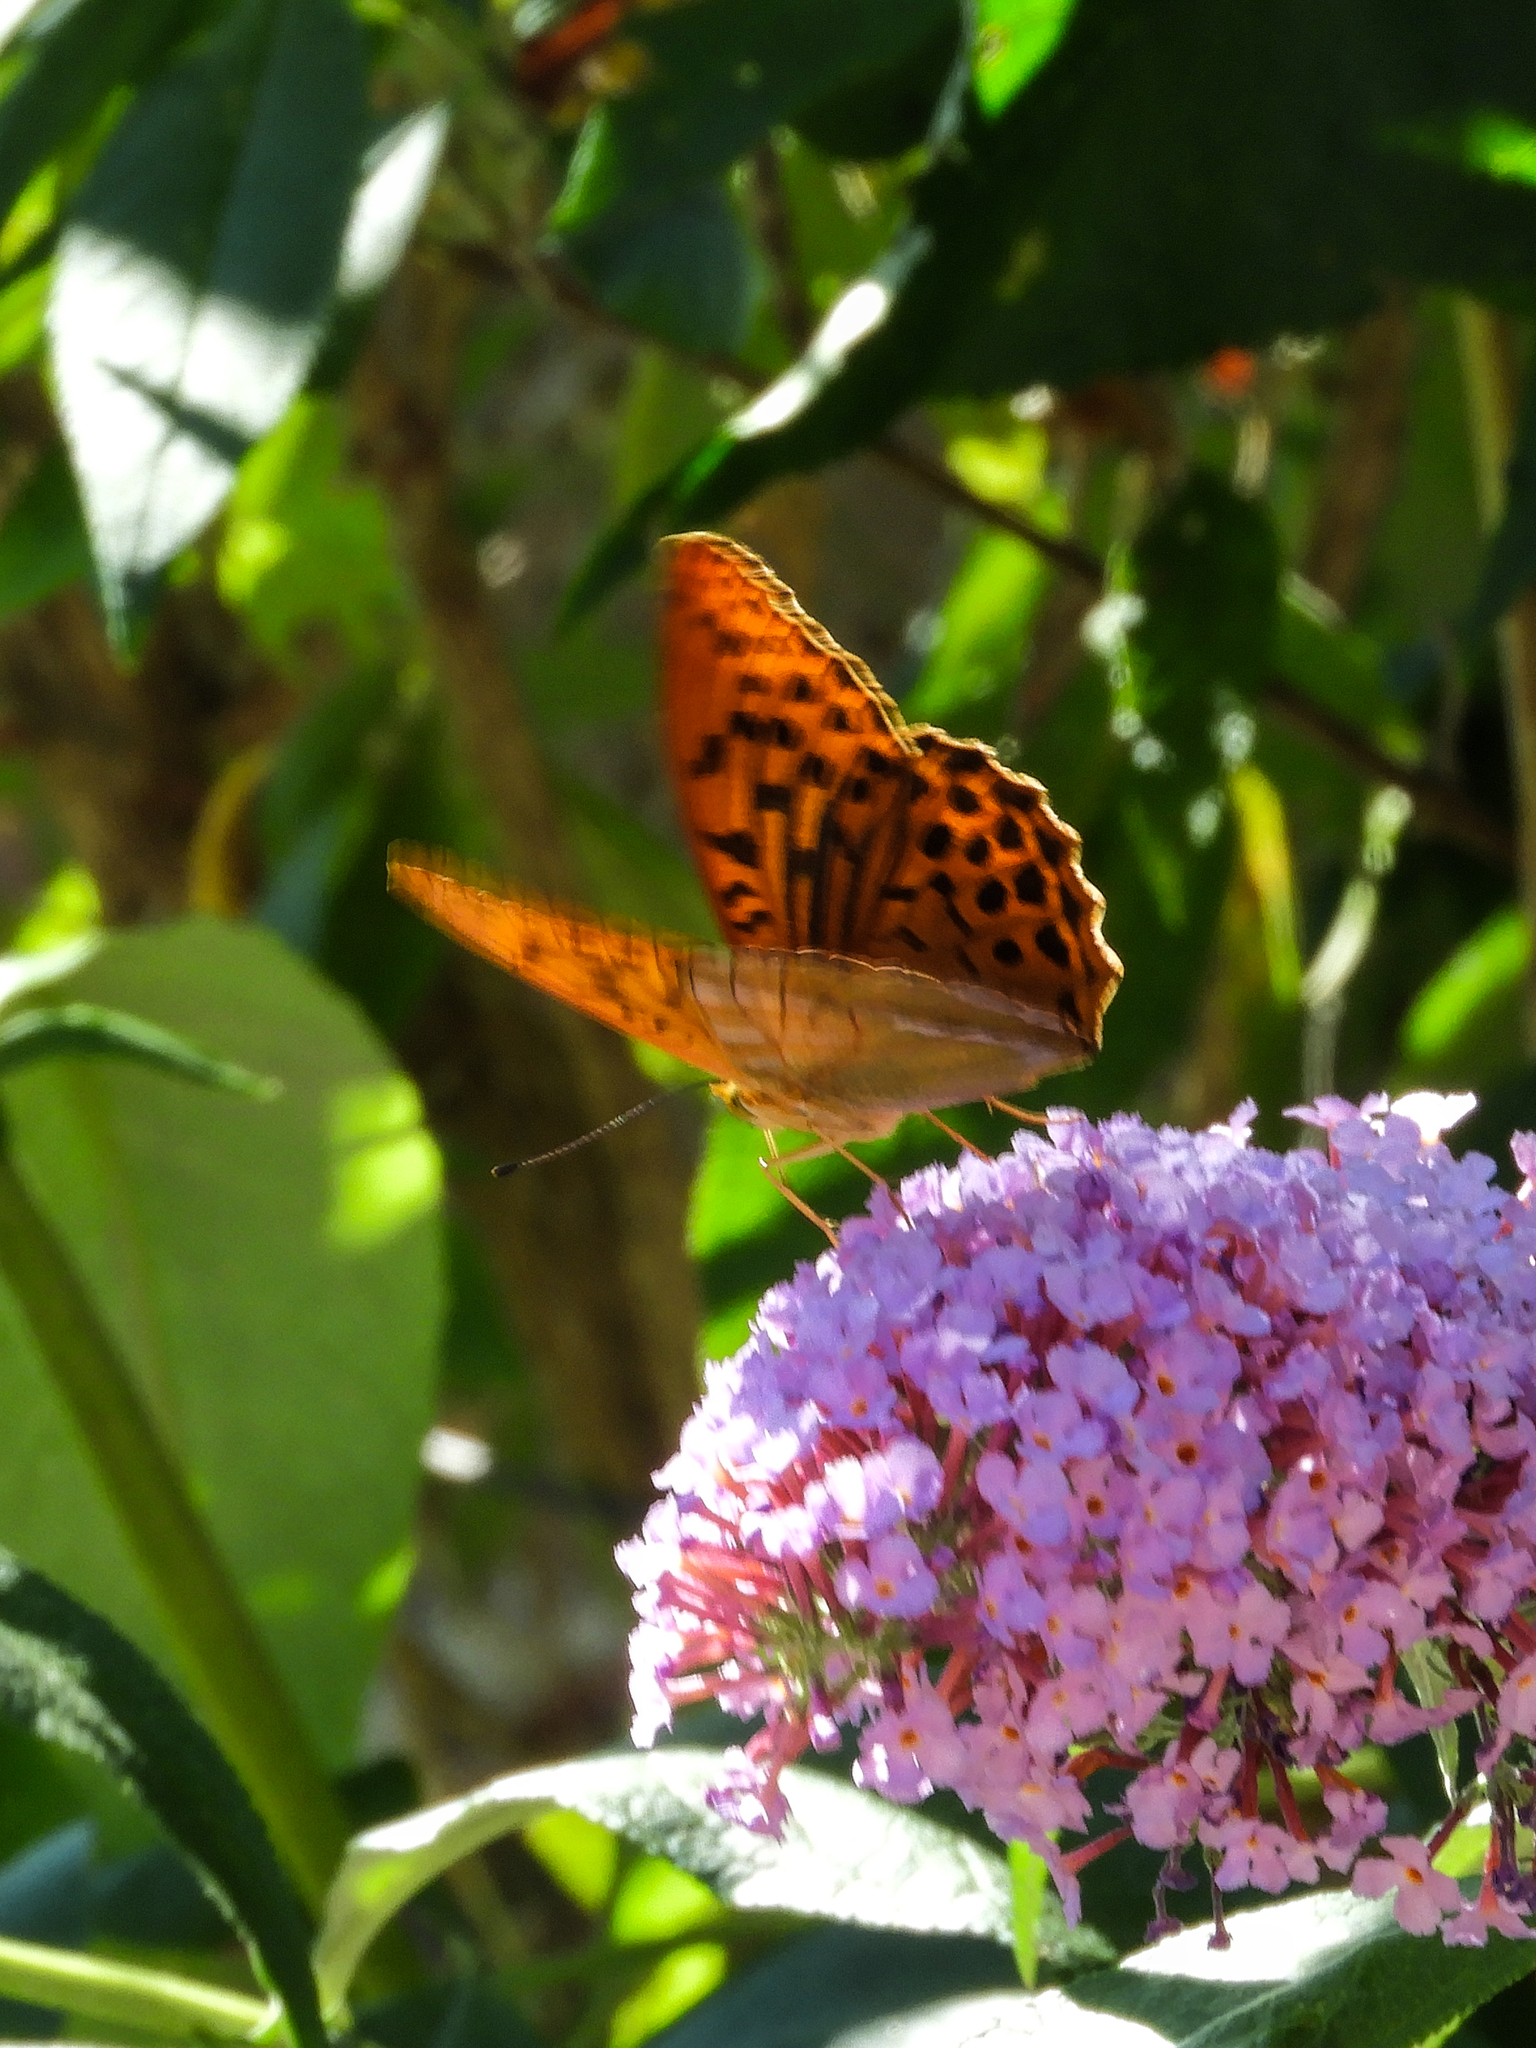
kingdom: Animalia
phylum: Arthropoda
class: Insecta
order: Lepidoptera
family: Nymphalidae
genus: Argynnis
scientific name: Argynnis paphia
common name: Silver-washed fritillary
